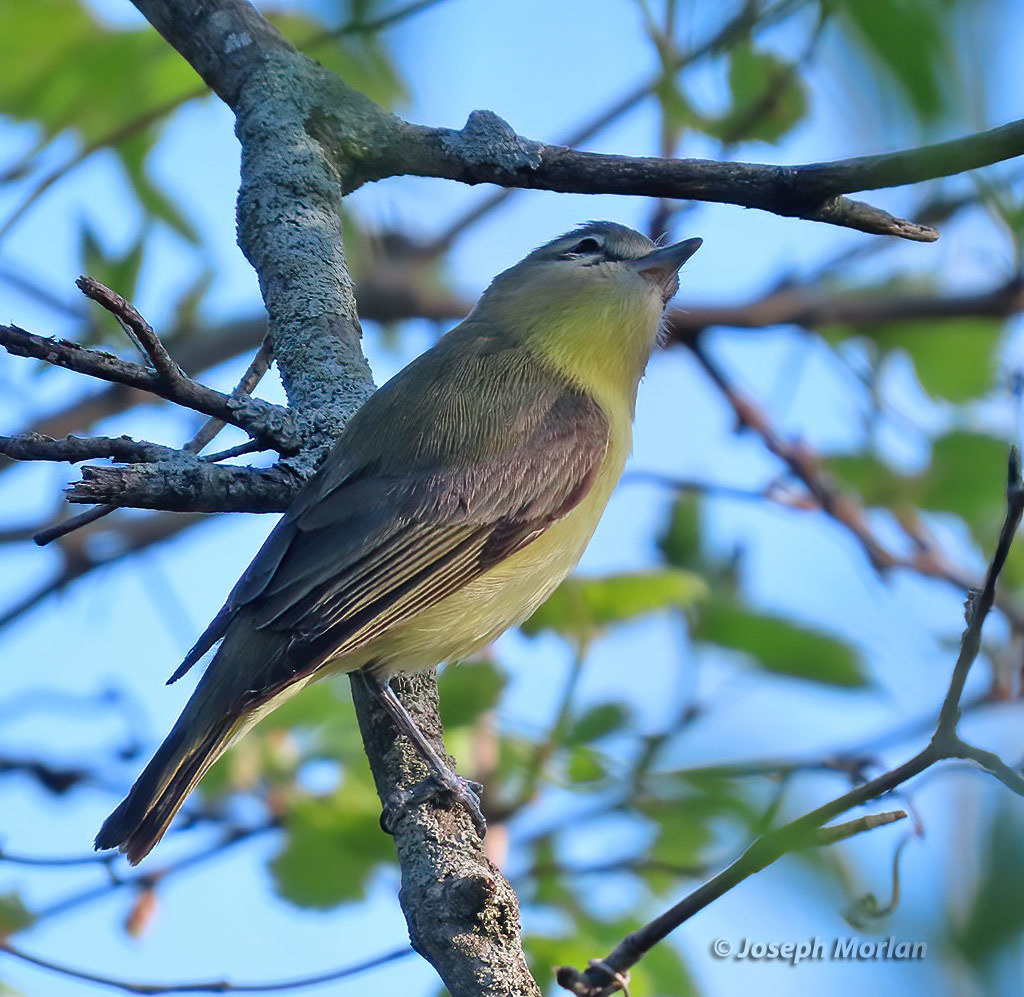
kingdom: Animalia
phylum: Chordata
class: Aves
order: Passeriformes
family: Vireonidae
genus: Vireo
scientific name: Vireo philadelphicus
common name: Philadelphia vireo
